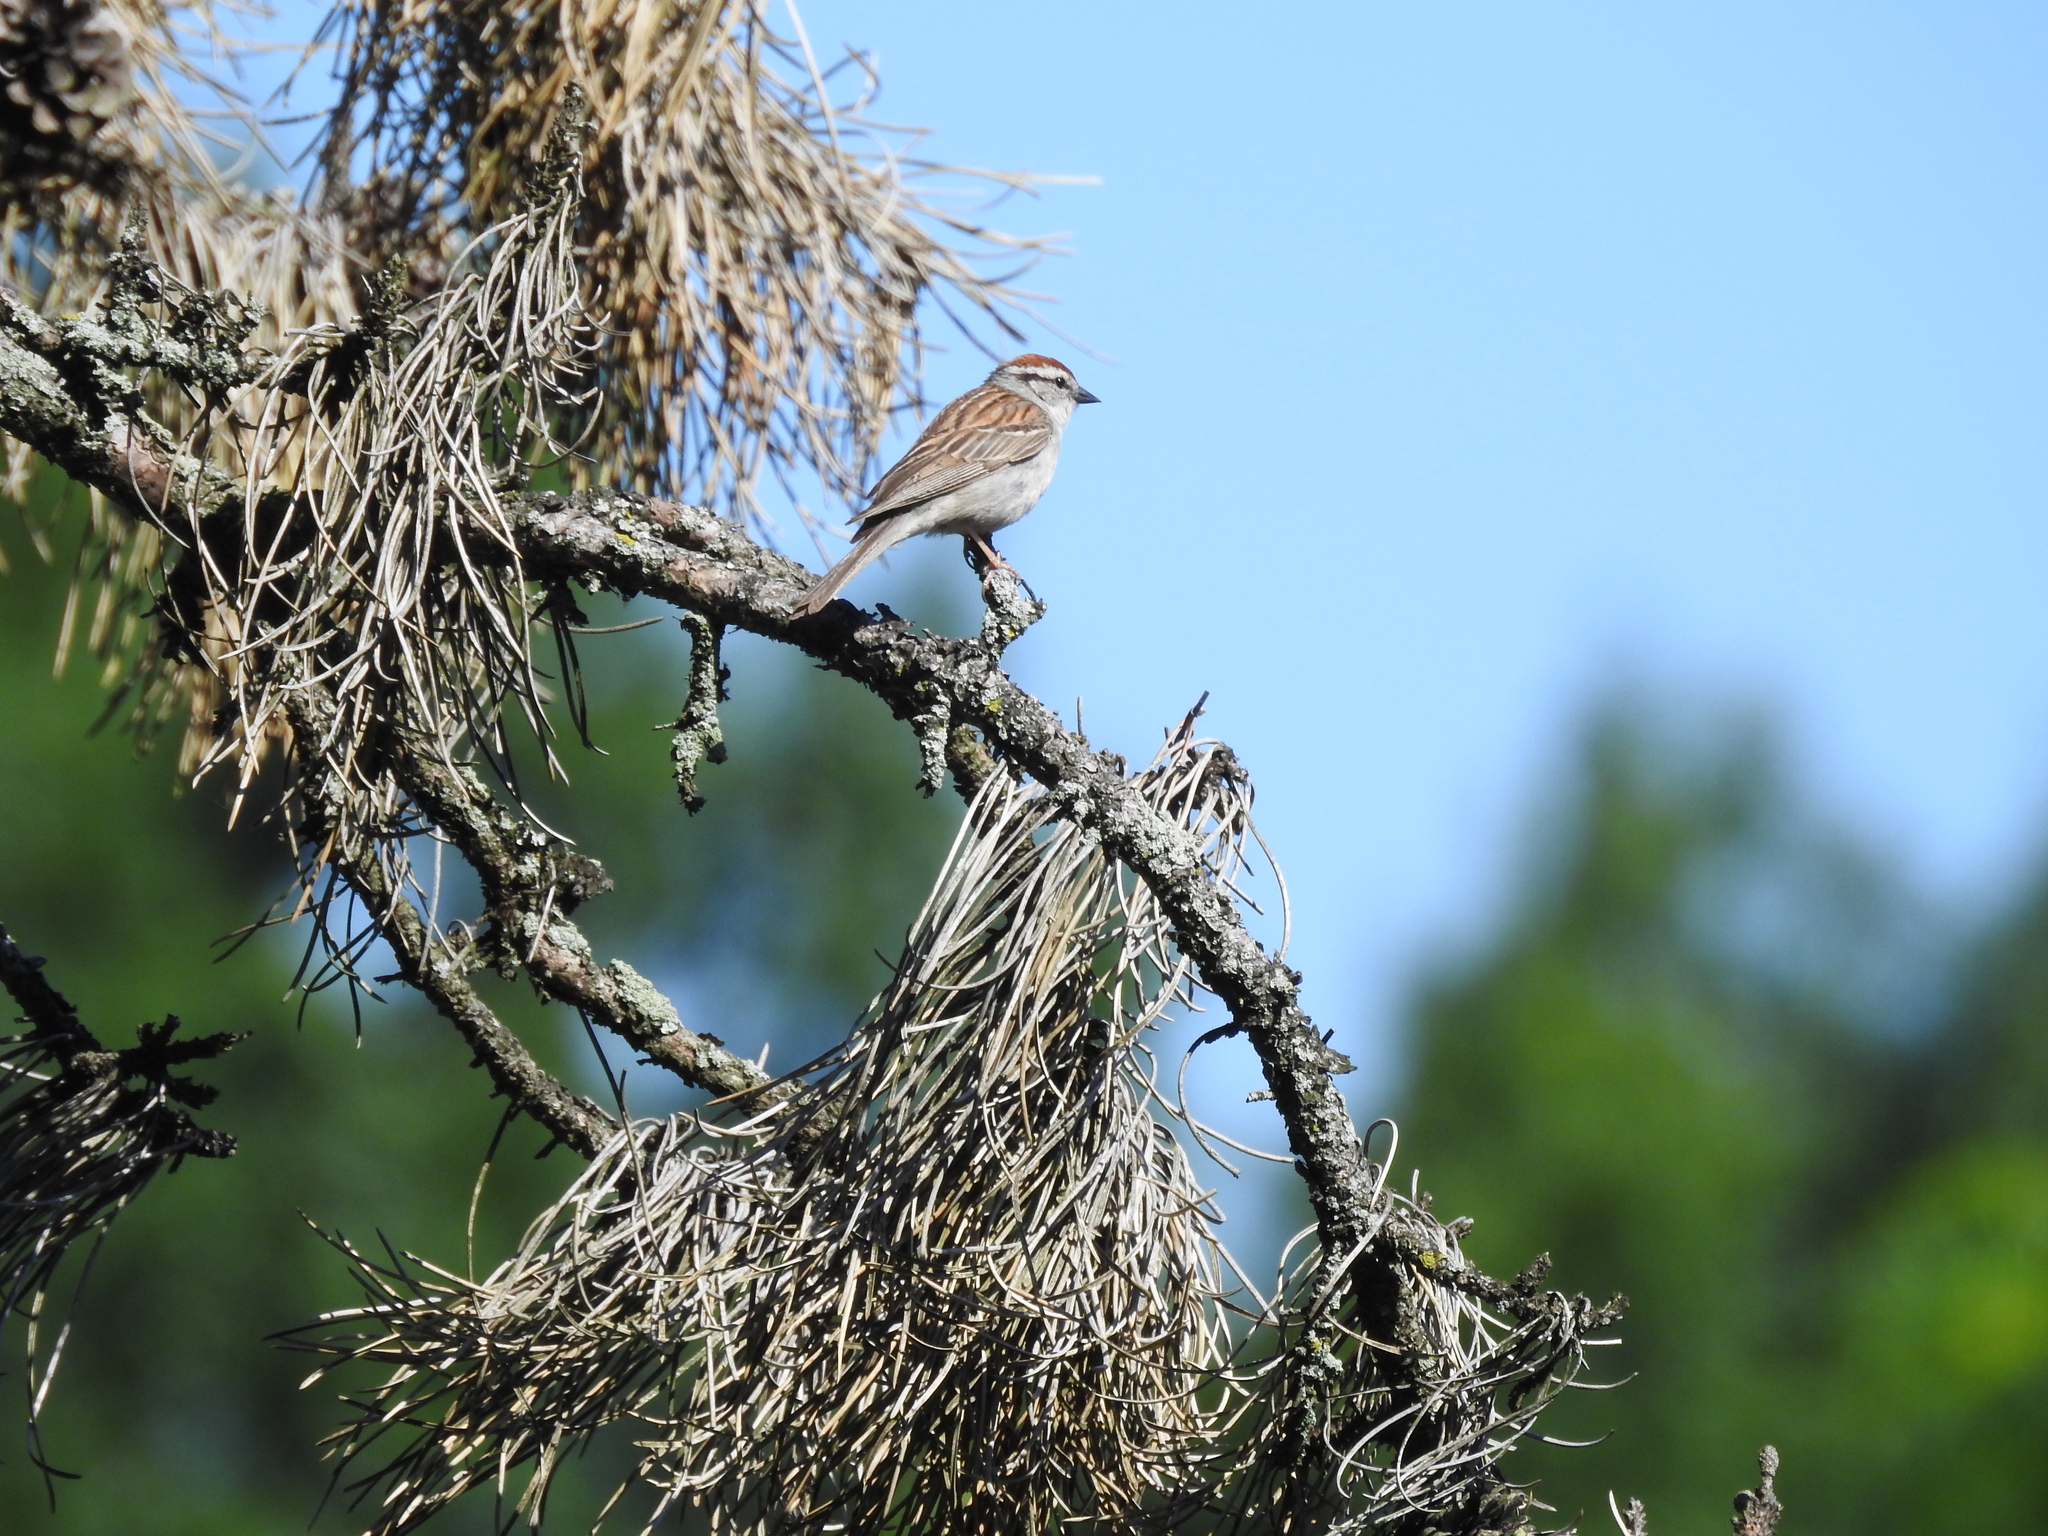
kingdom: Animalia
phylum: Chordata
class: Aves
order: Passeriformes
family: Passerellidae
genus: Spizella
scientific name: Spizella passerina
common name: Chipping sparrow
